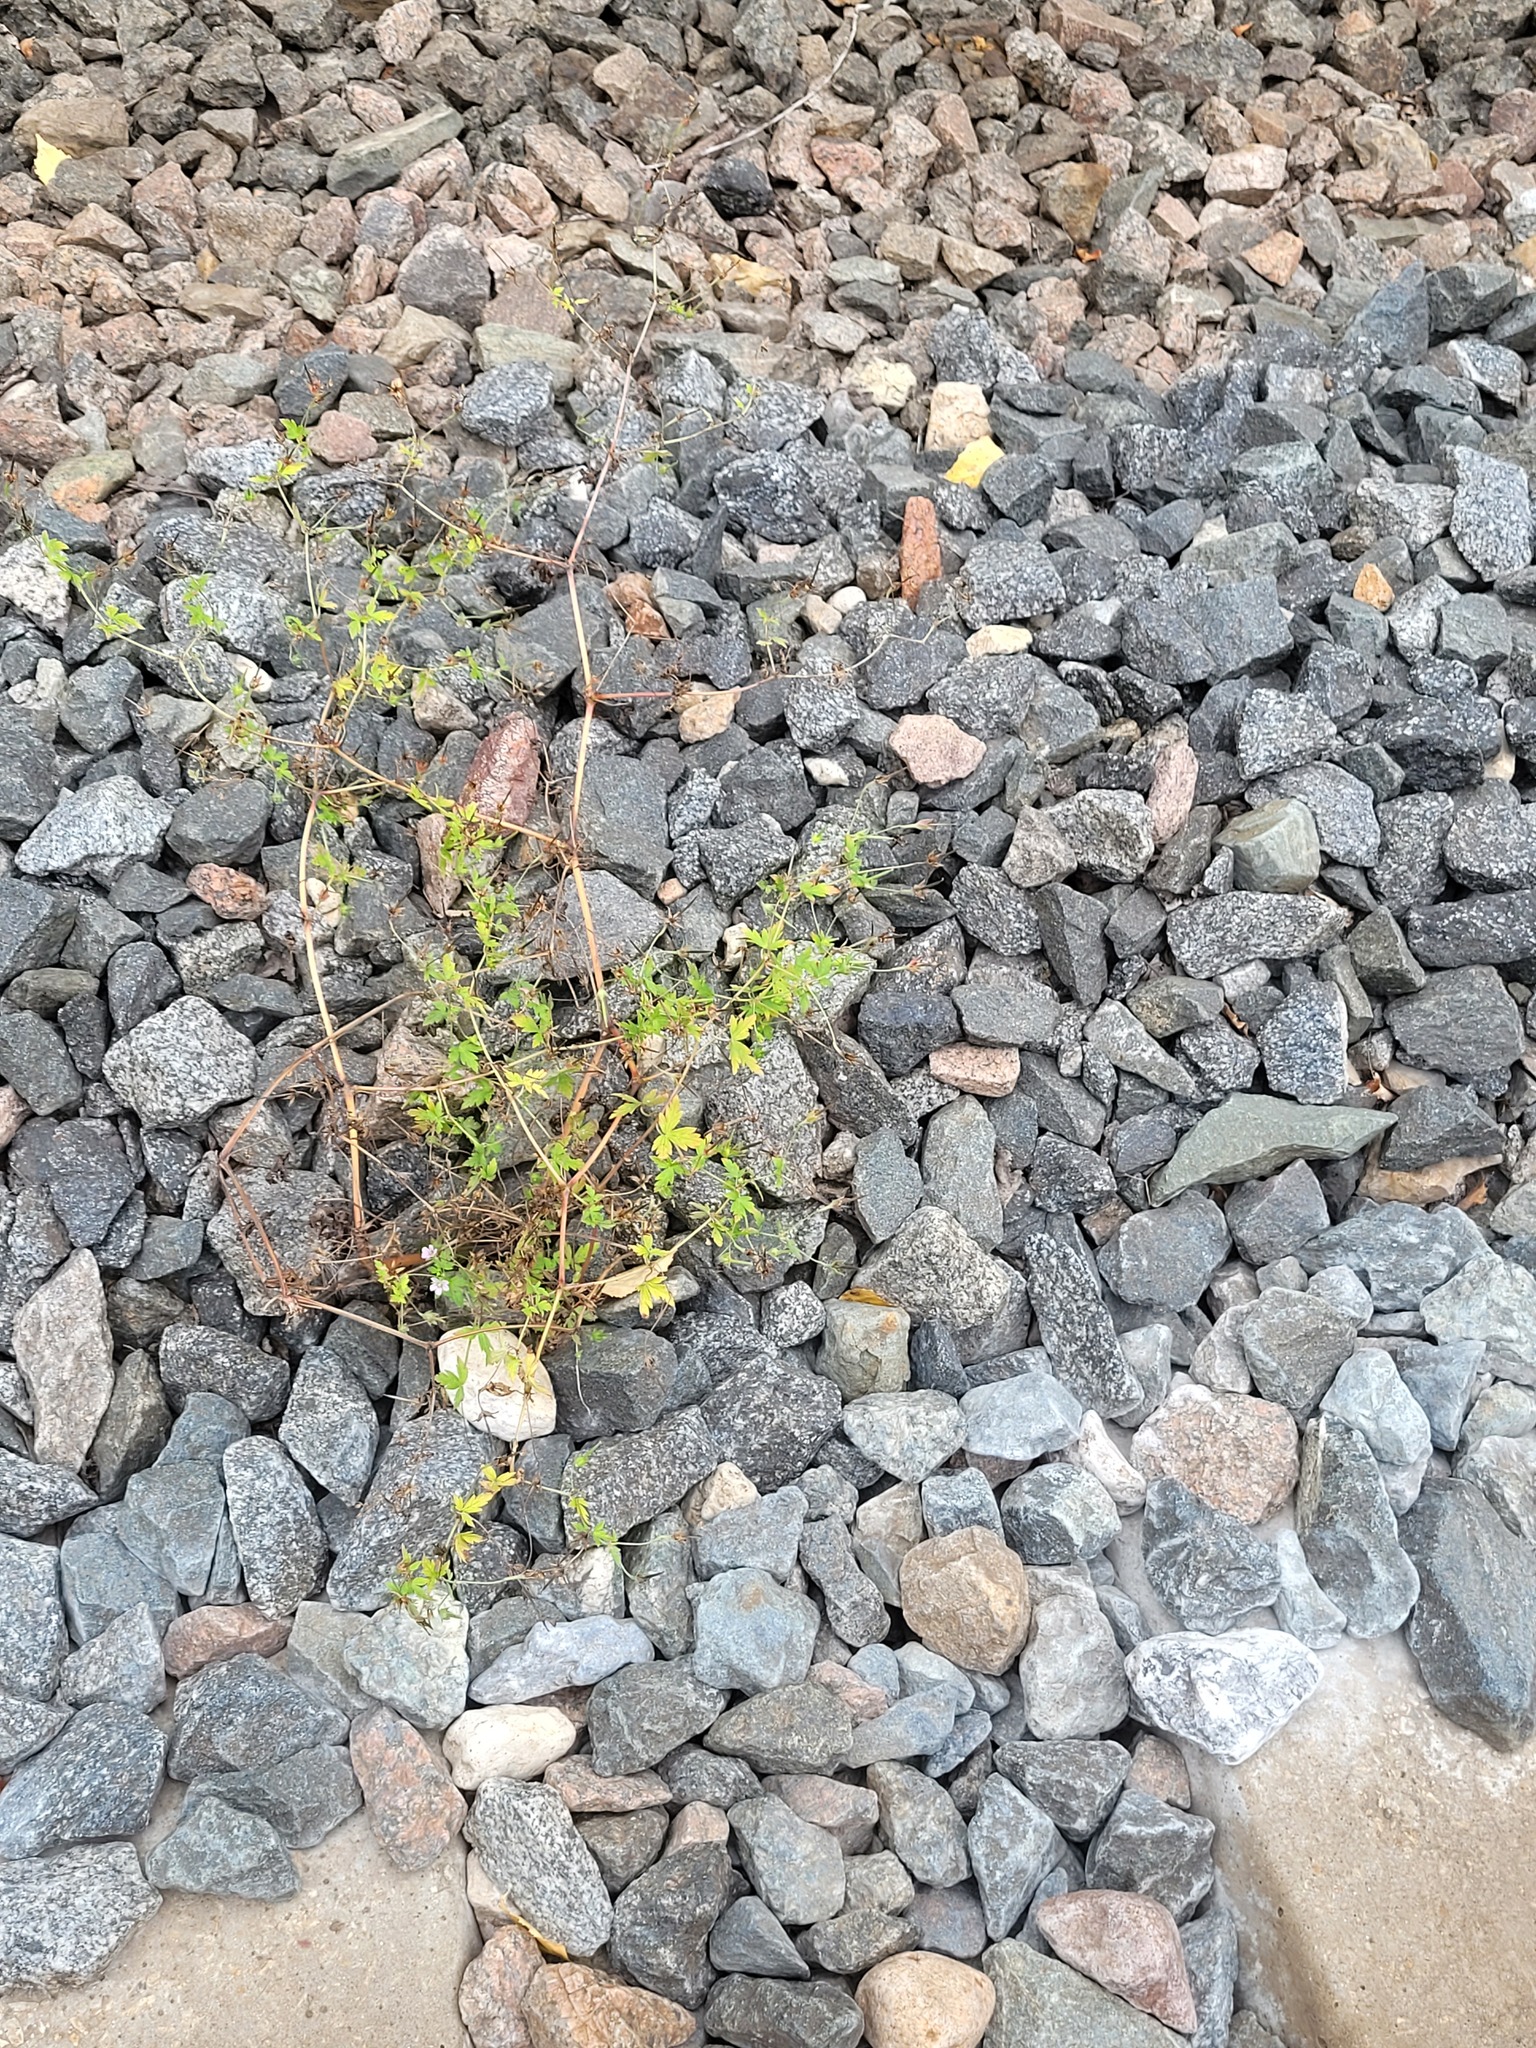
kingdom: Plantae
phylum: Tracheophyta
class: Magnoliopsida
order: Geraniales
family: Geraniaceae
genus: Geranium
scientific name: Geranium sibiricum
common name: Siberian crane's-bill
